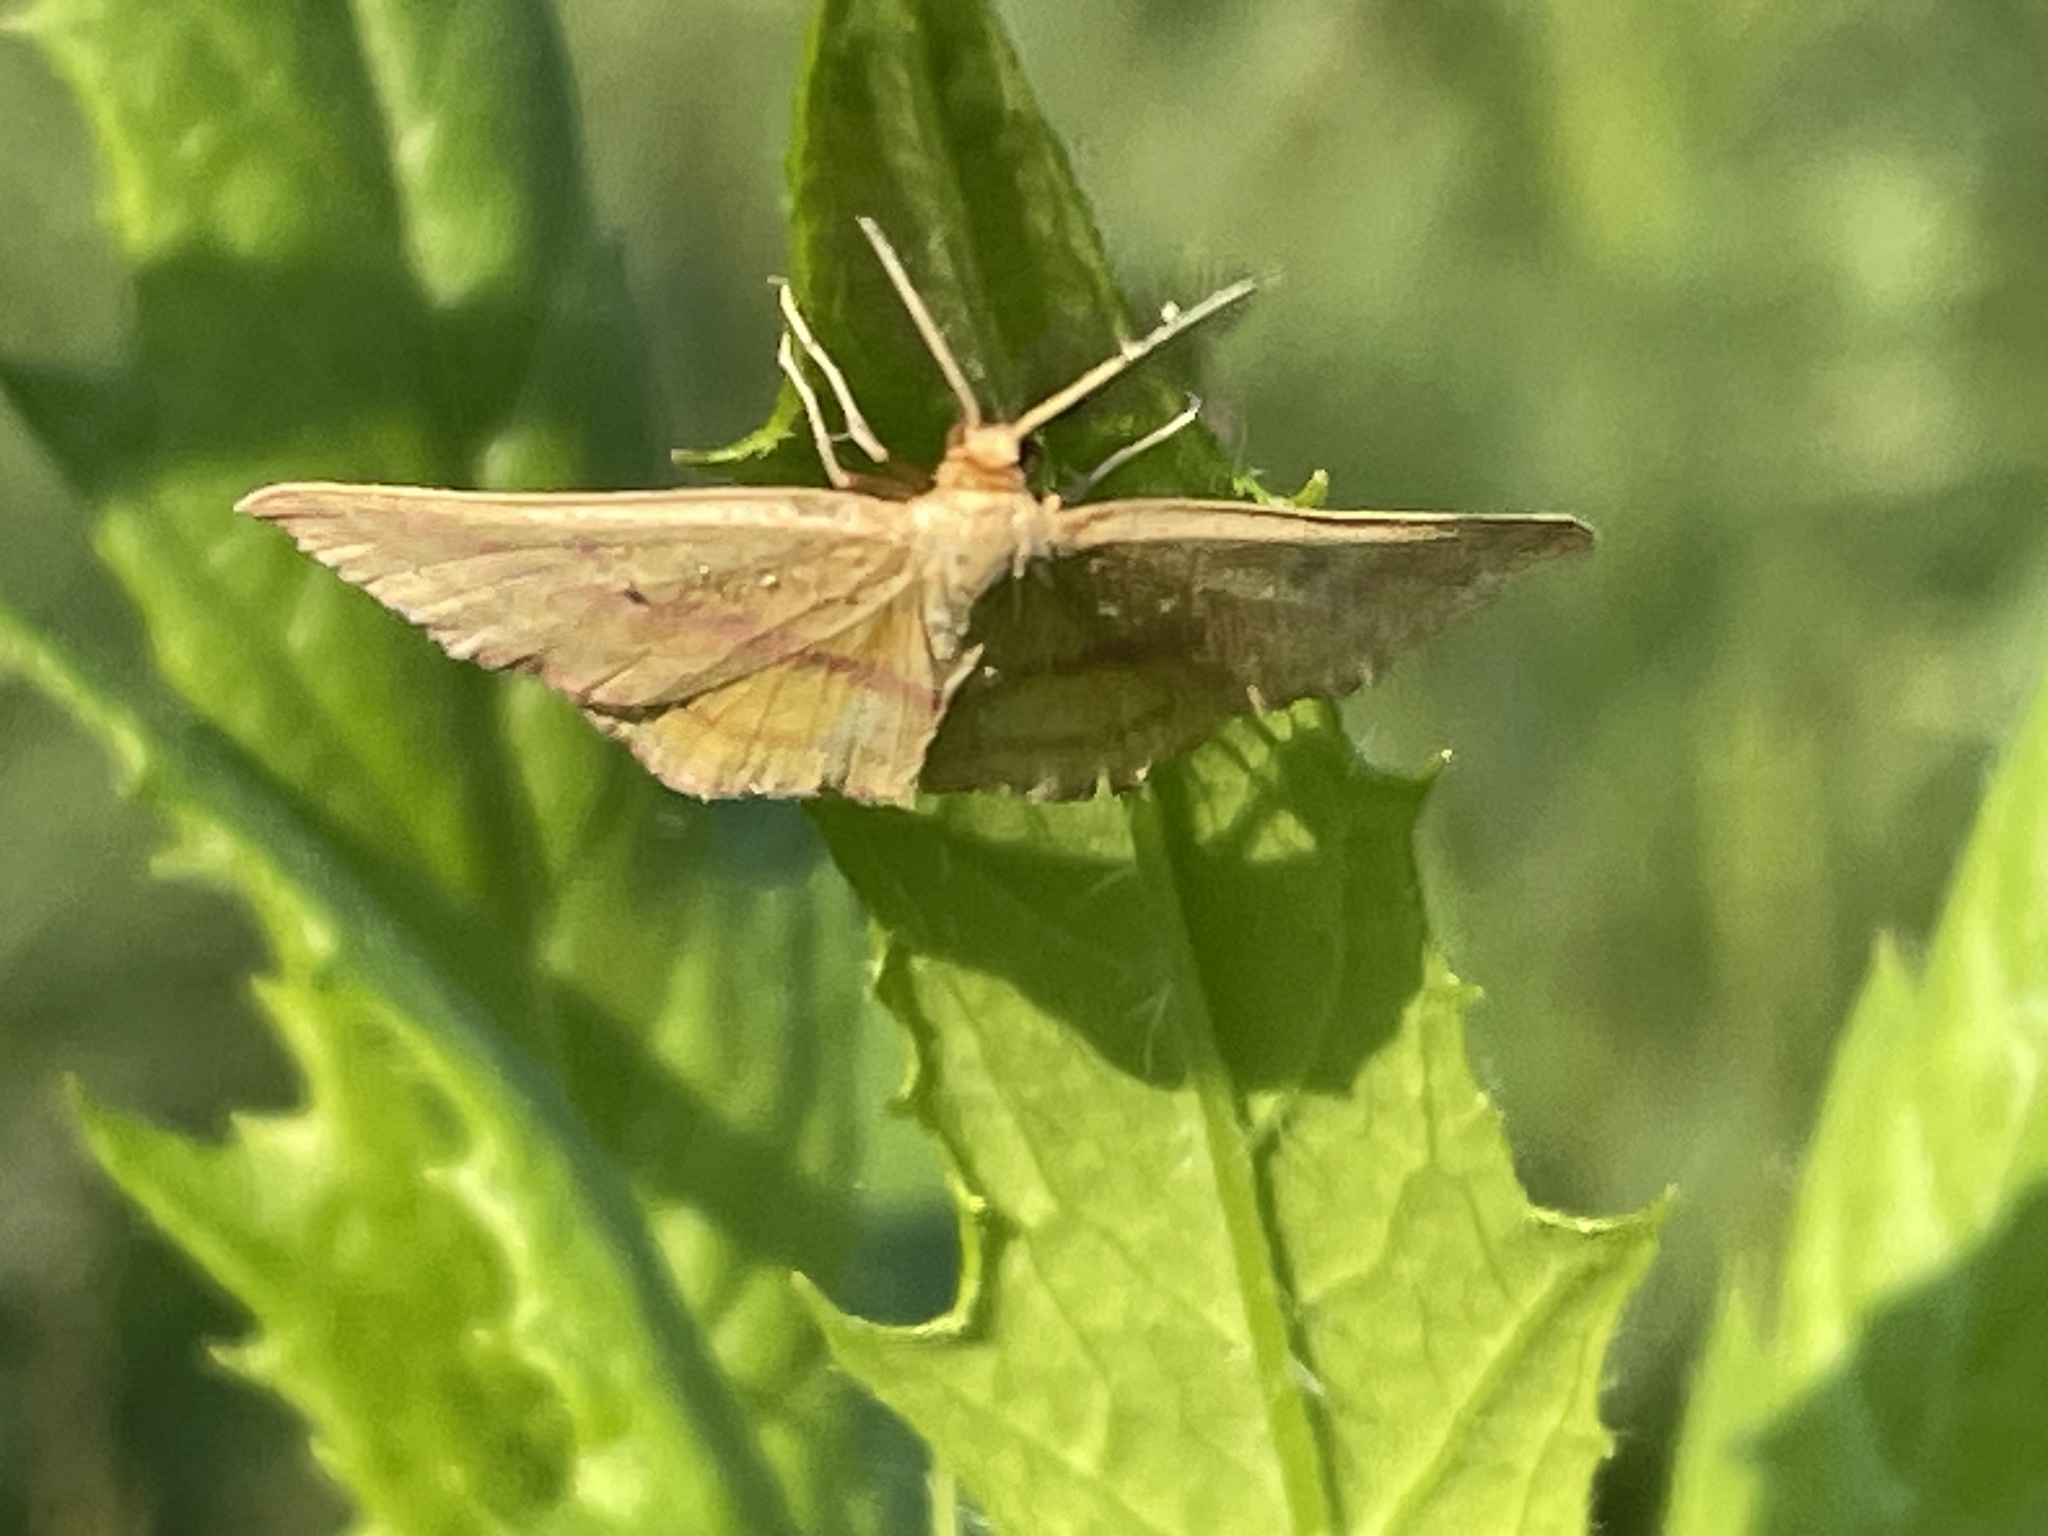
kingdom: Animalia
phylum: Arthropoda
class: Insecta
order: Lepidoptera
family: Geometridae
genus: Haematopis
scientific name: Haematopis grataria
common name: Chickweed geometer
